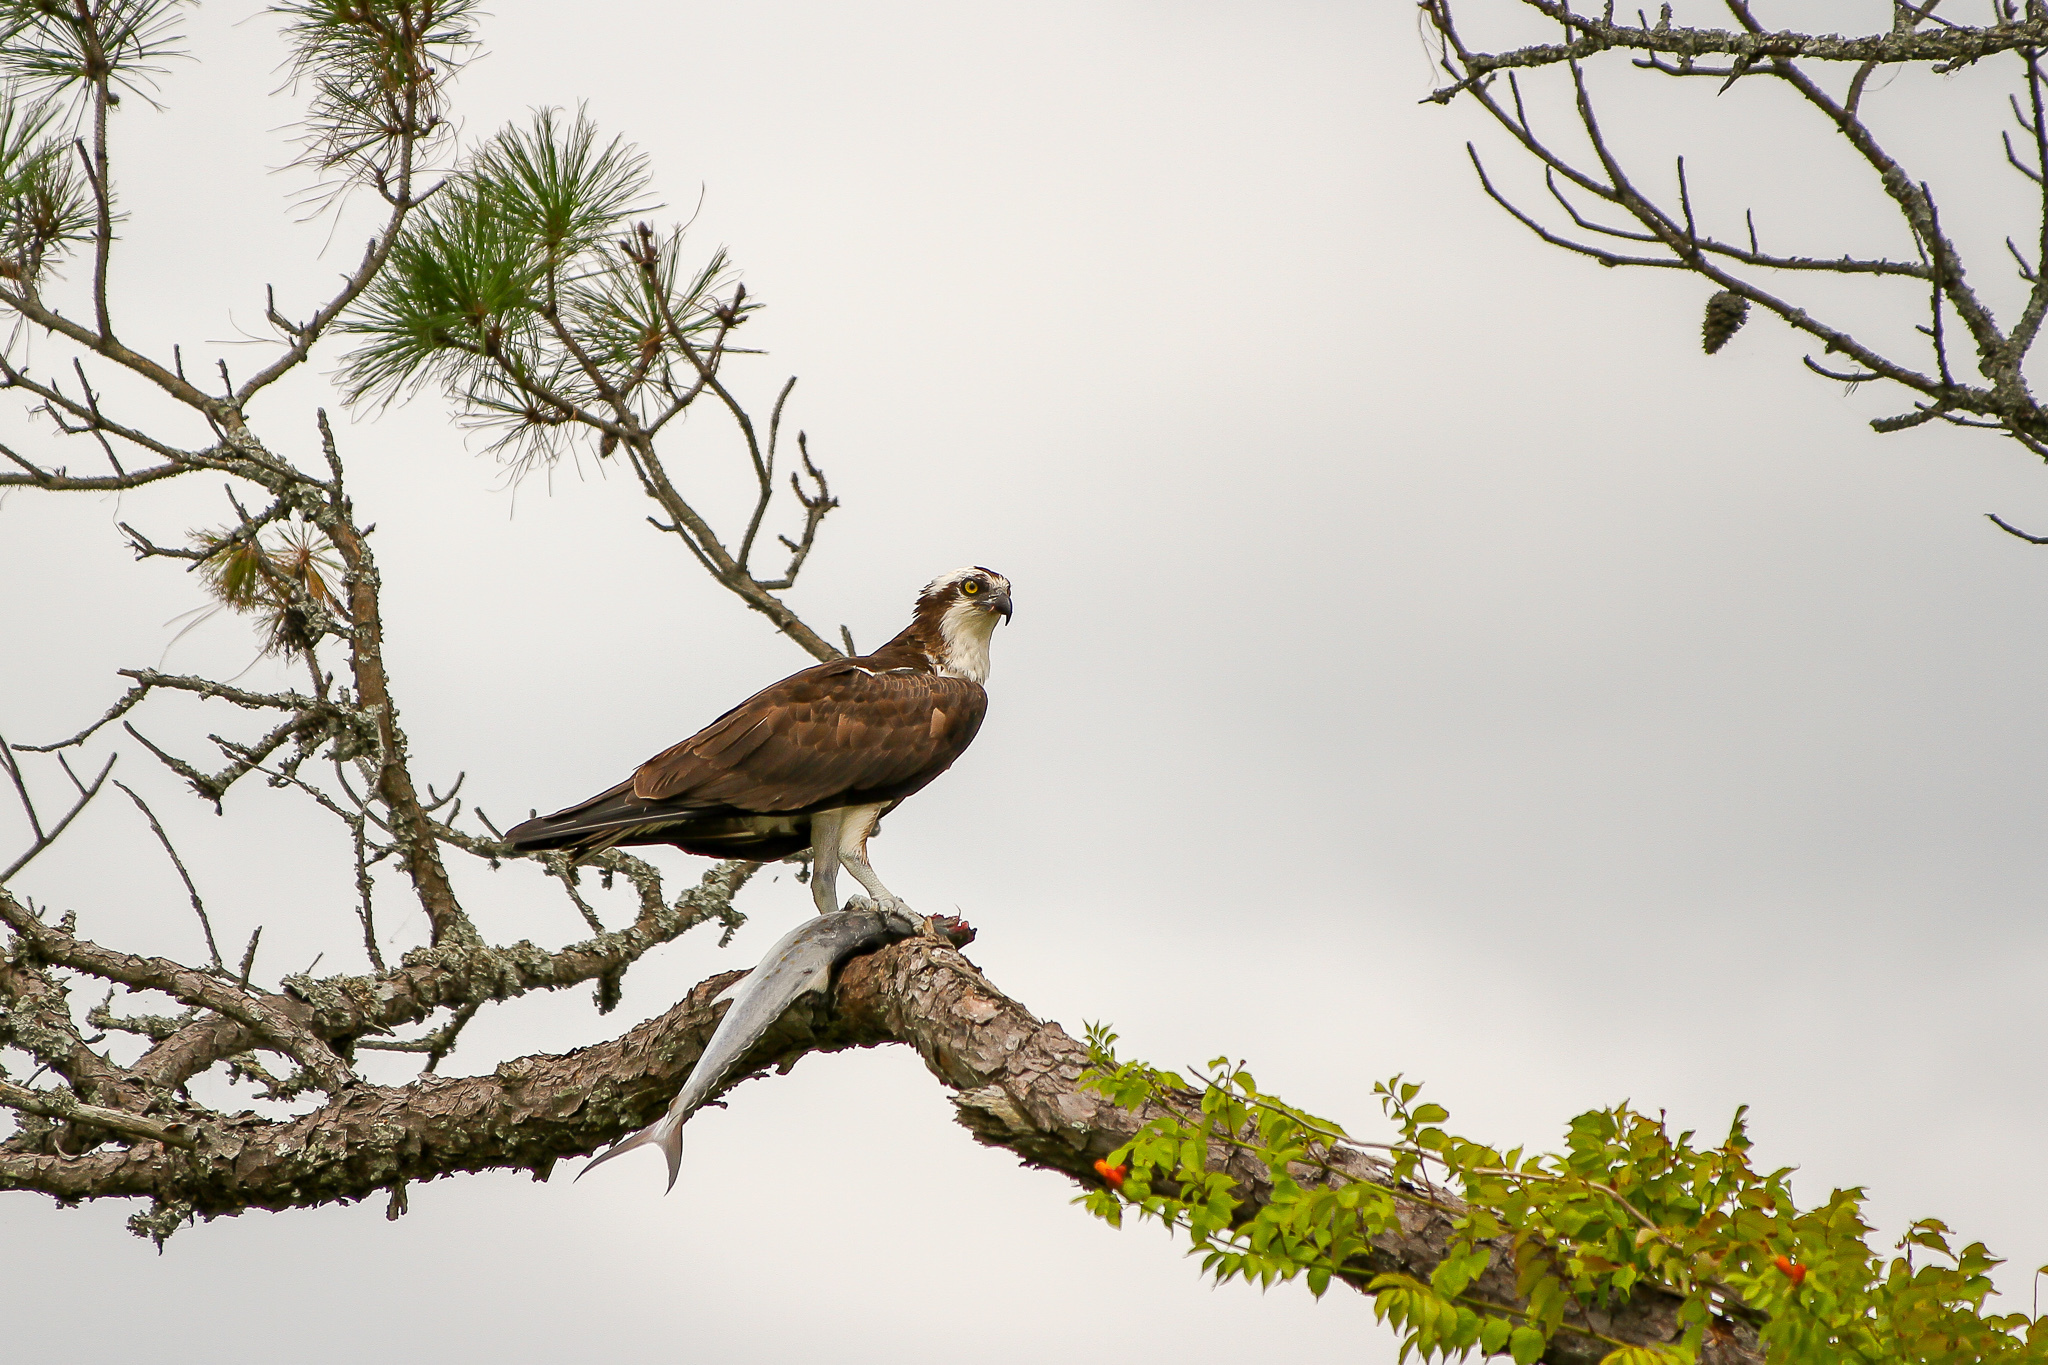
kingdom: Animalia
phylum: Chordata
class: Aves
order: Accipitriformes
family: Pandionidae
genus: Pandion
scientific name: Pandion haliaetus
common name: Osprey
